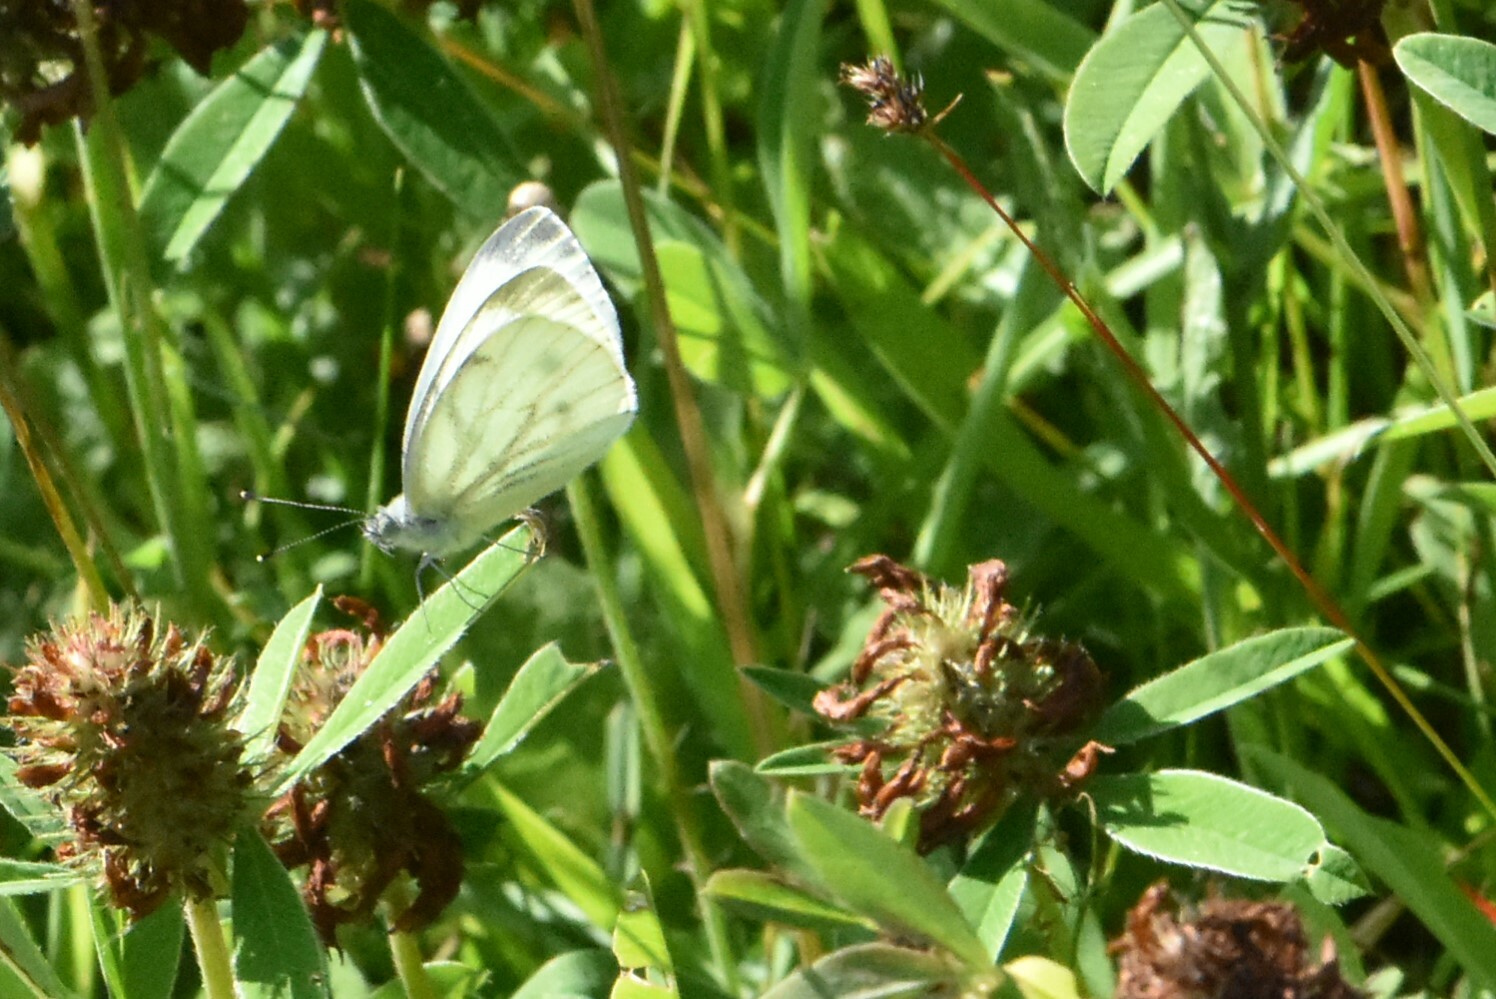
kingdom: Animalia
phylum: Arthropoda
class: Insecta
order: Lepidoptera
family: Pieridae
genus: Pieris
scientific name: Pieris napi
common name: Green-veined white
